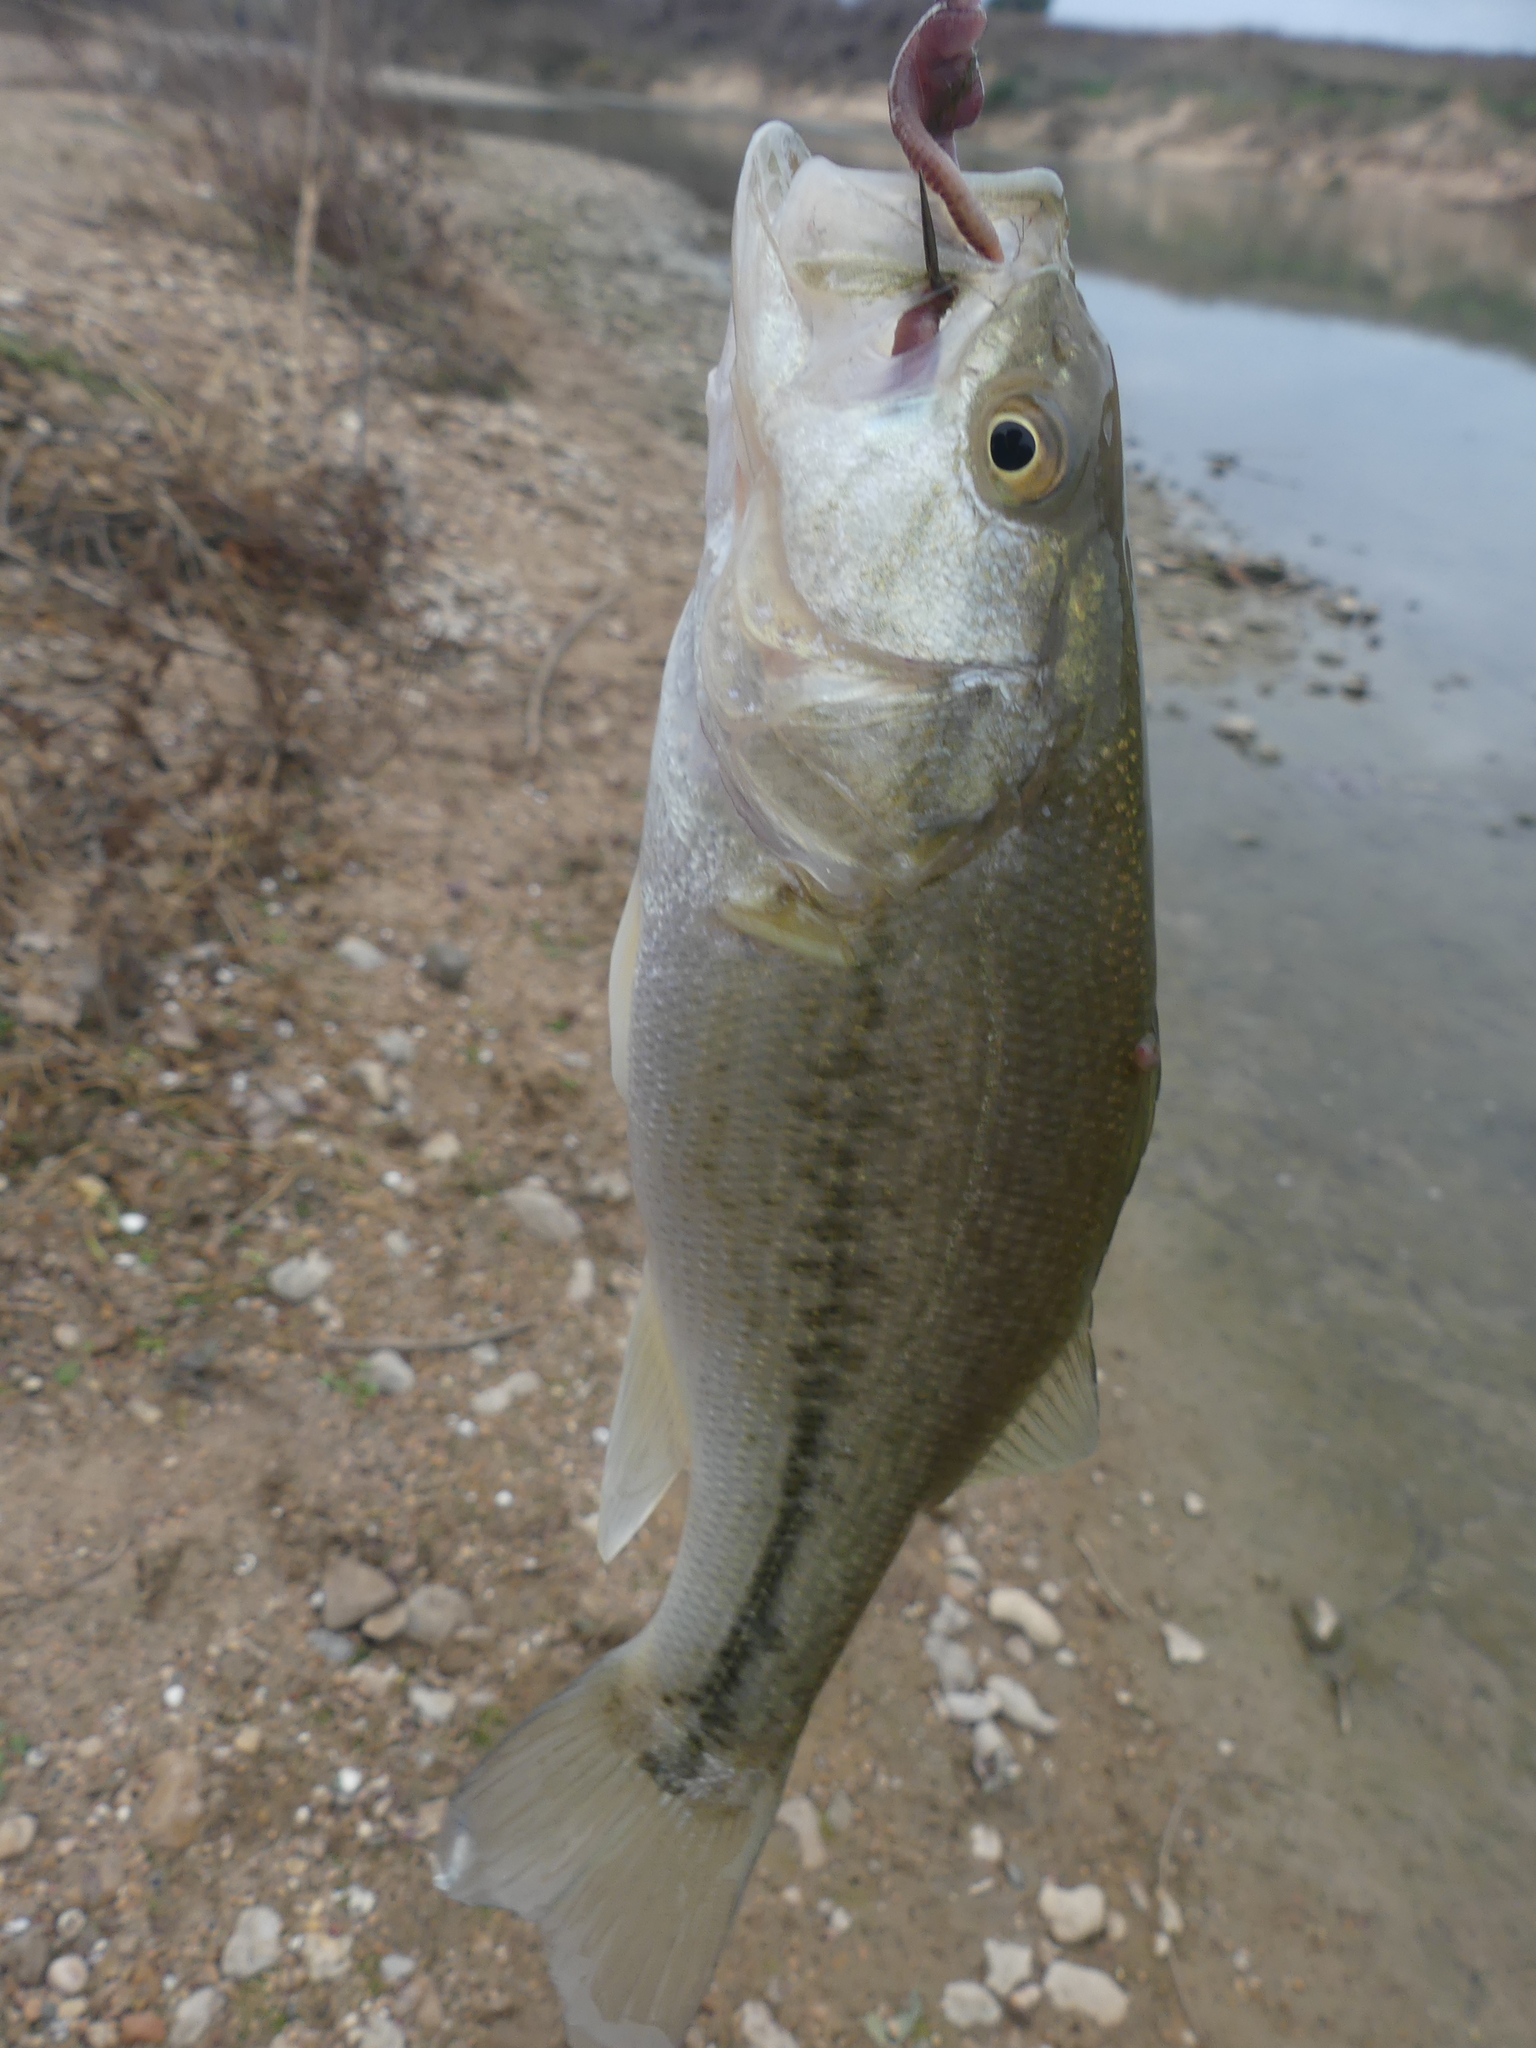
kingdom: Animalia
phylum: Chordata
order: Perciformes
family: Centrarchidae
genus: Micropterus
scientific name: Micropterus
